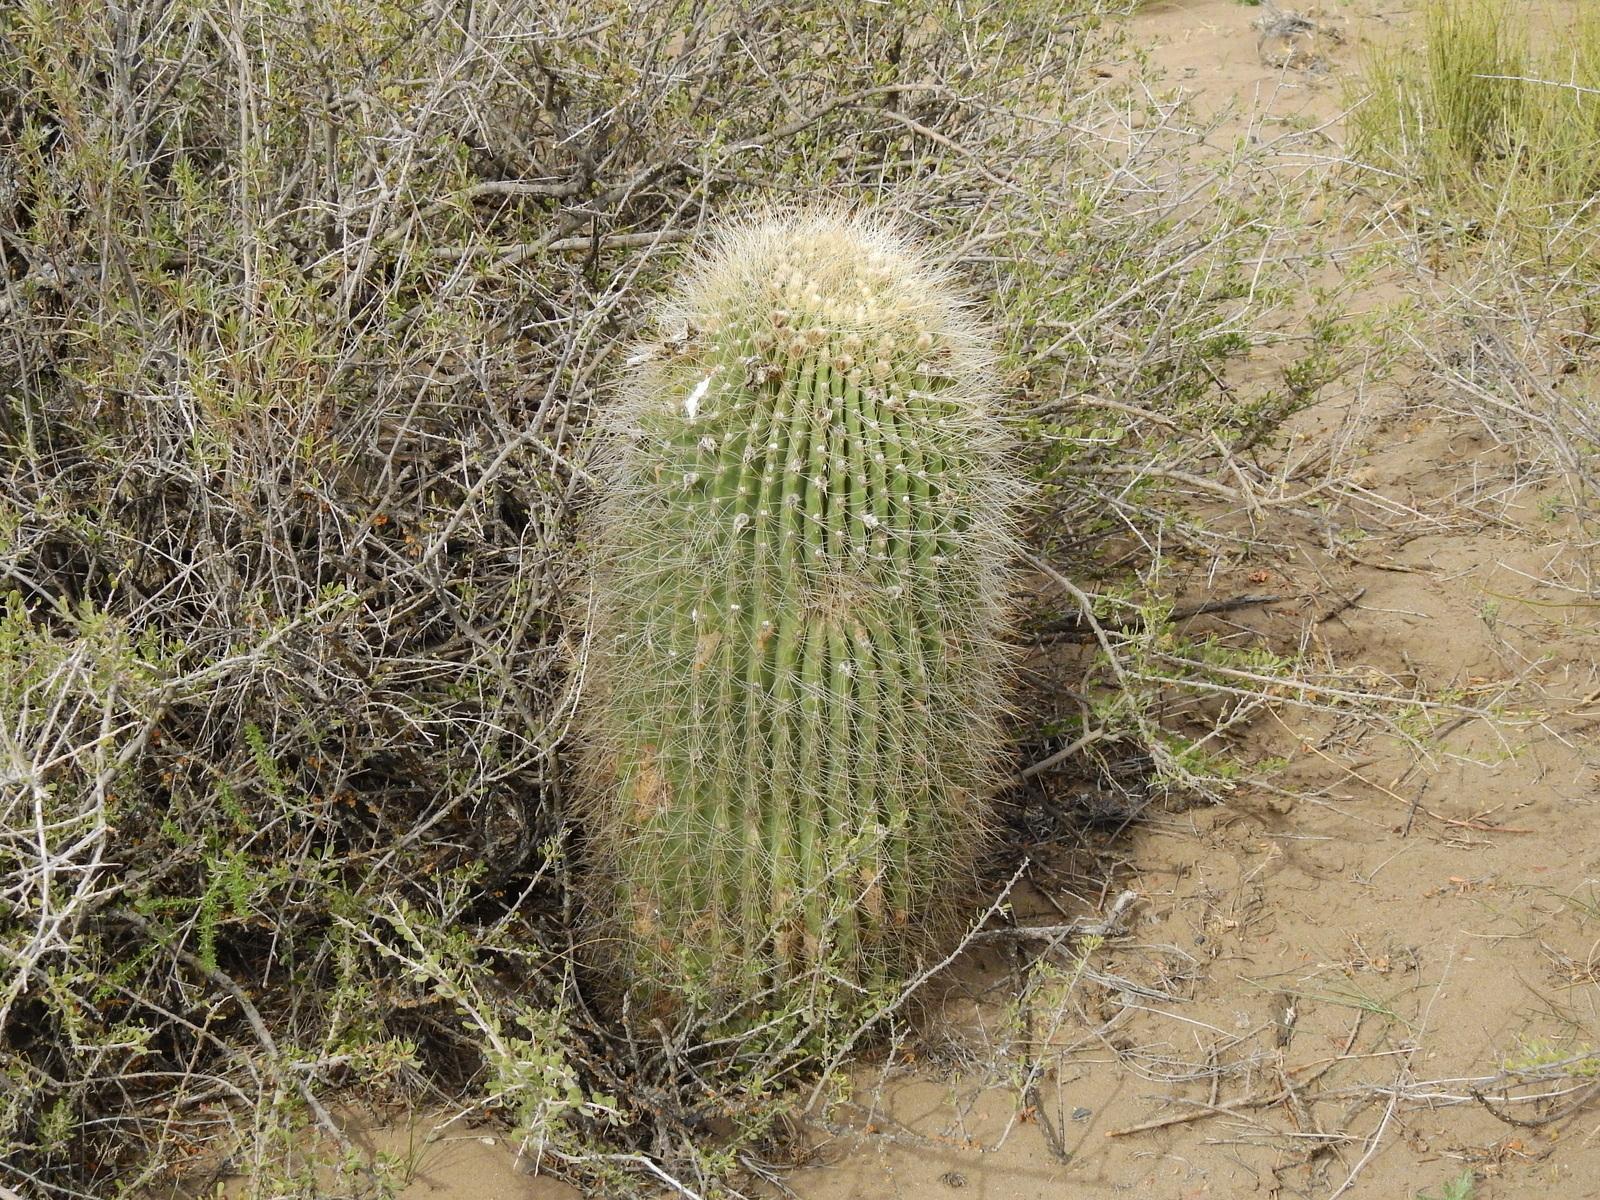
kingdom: Plantae
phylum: Tracheophyta
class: Magnoliopsida
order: Caryophyllales
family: Cactaceae
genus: Soehrensia
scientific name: Soehrensia formosa
